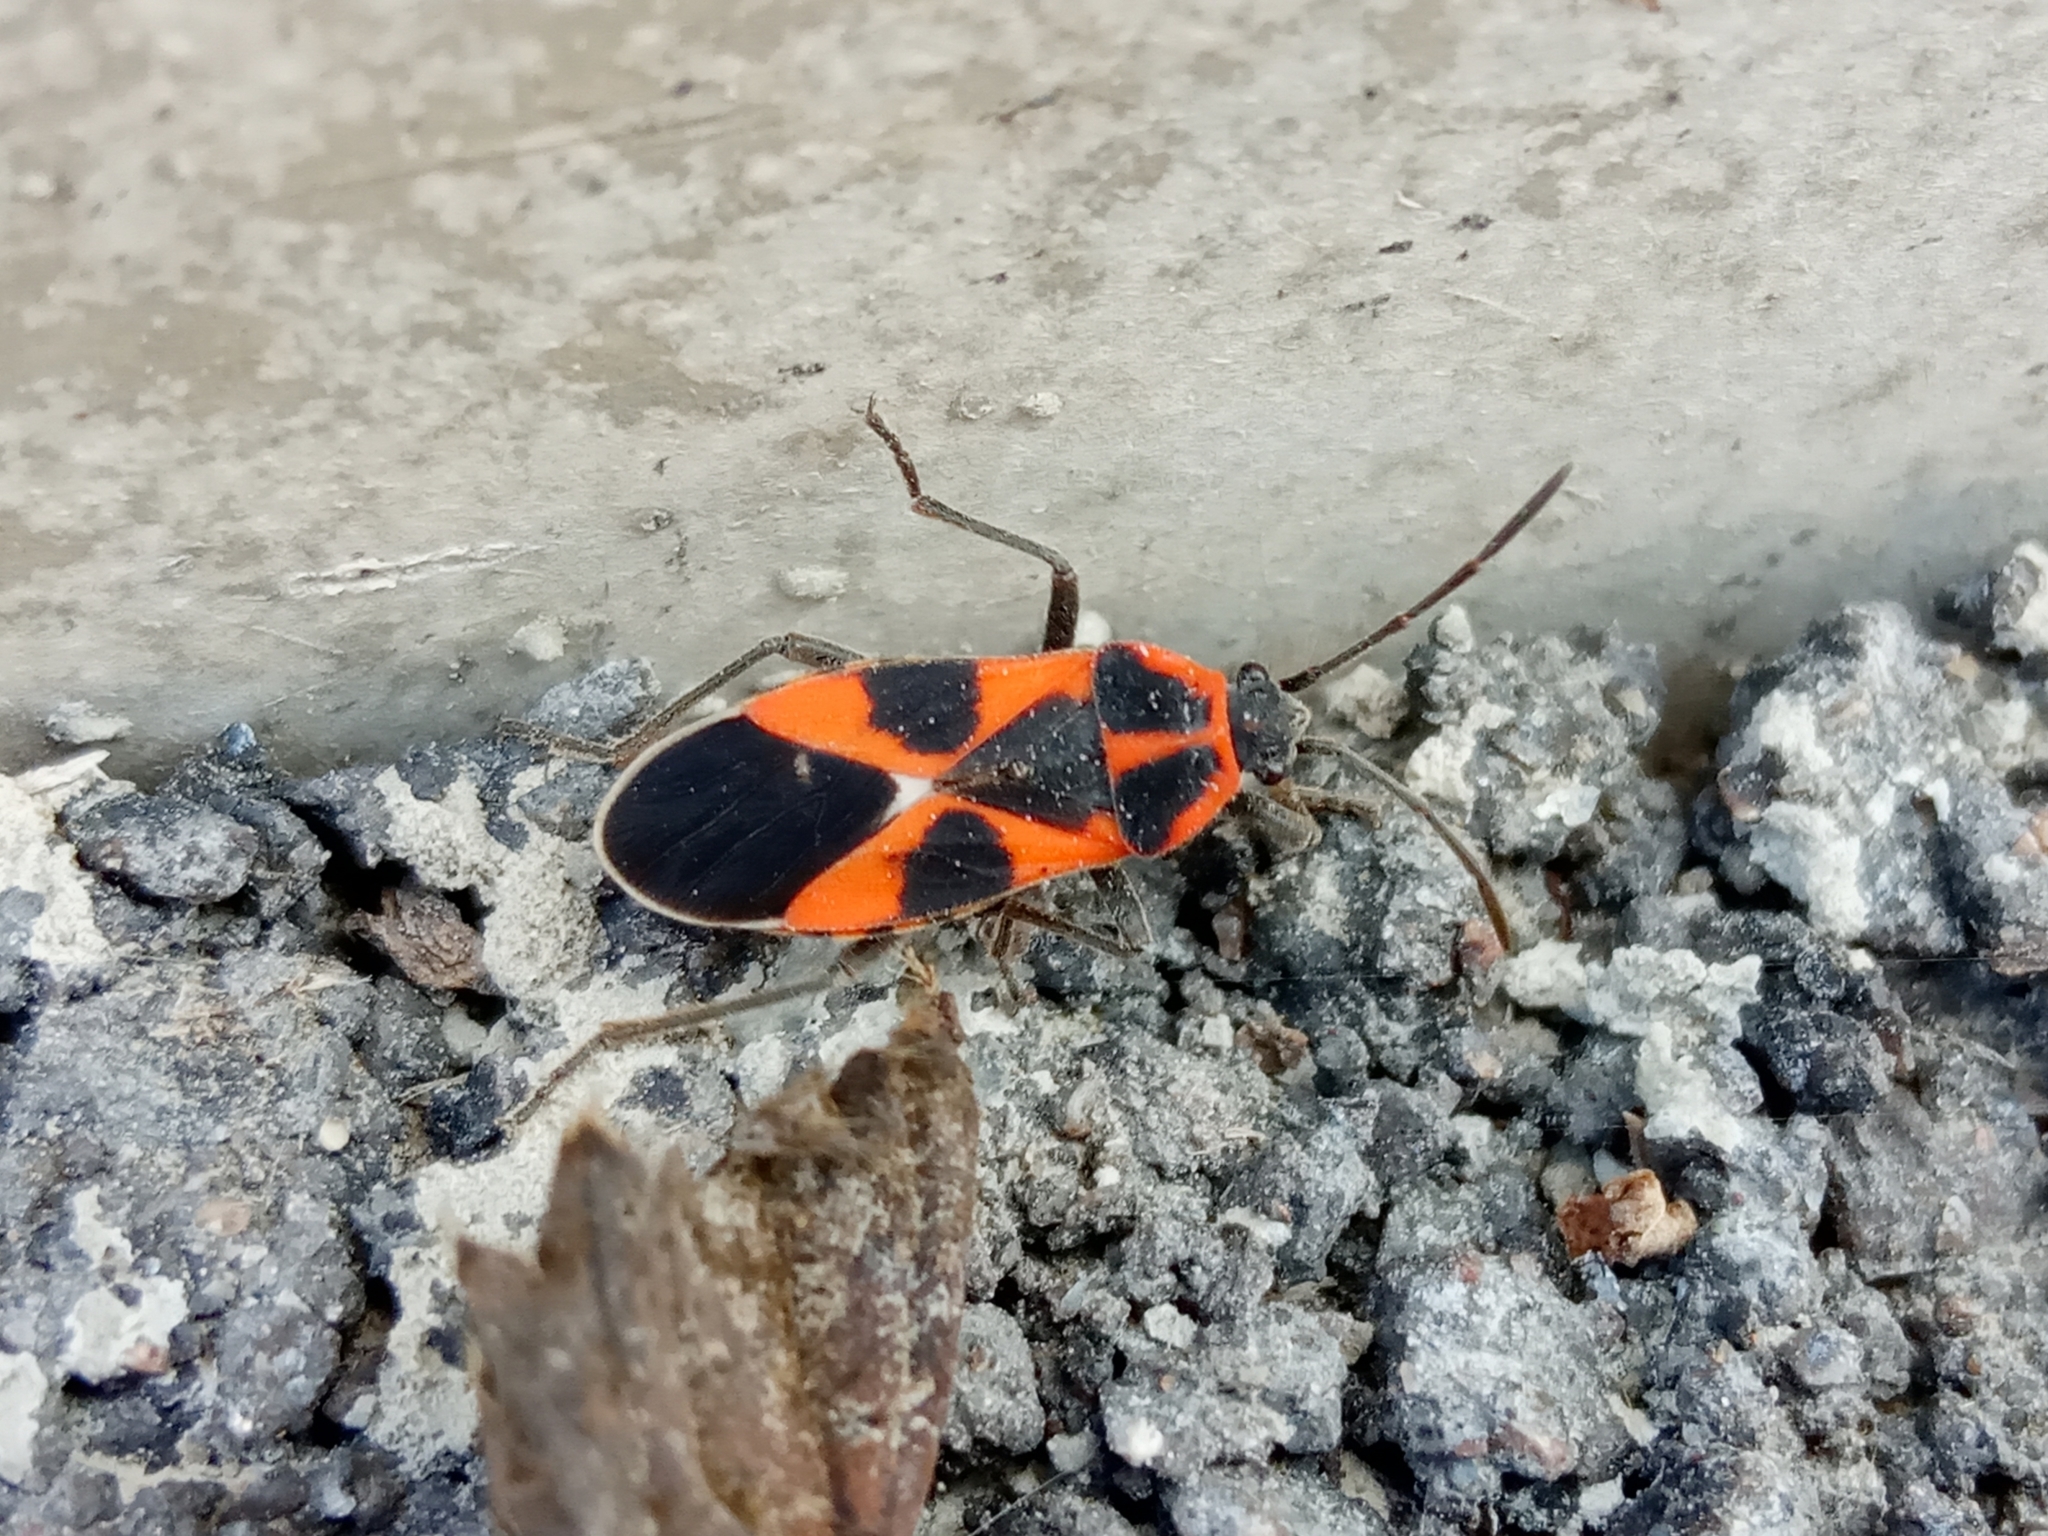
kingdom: Animalia
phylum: Arthropoda
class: Insecta
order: Hemiptera
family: Lygaeidae
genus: Tropidothorax
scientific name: Tropidothorax leucopterus
